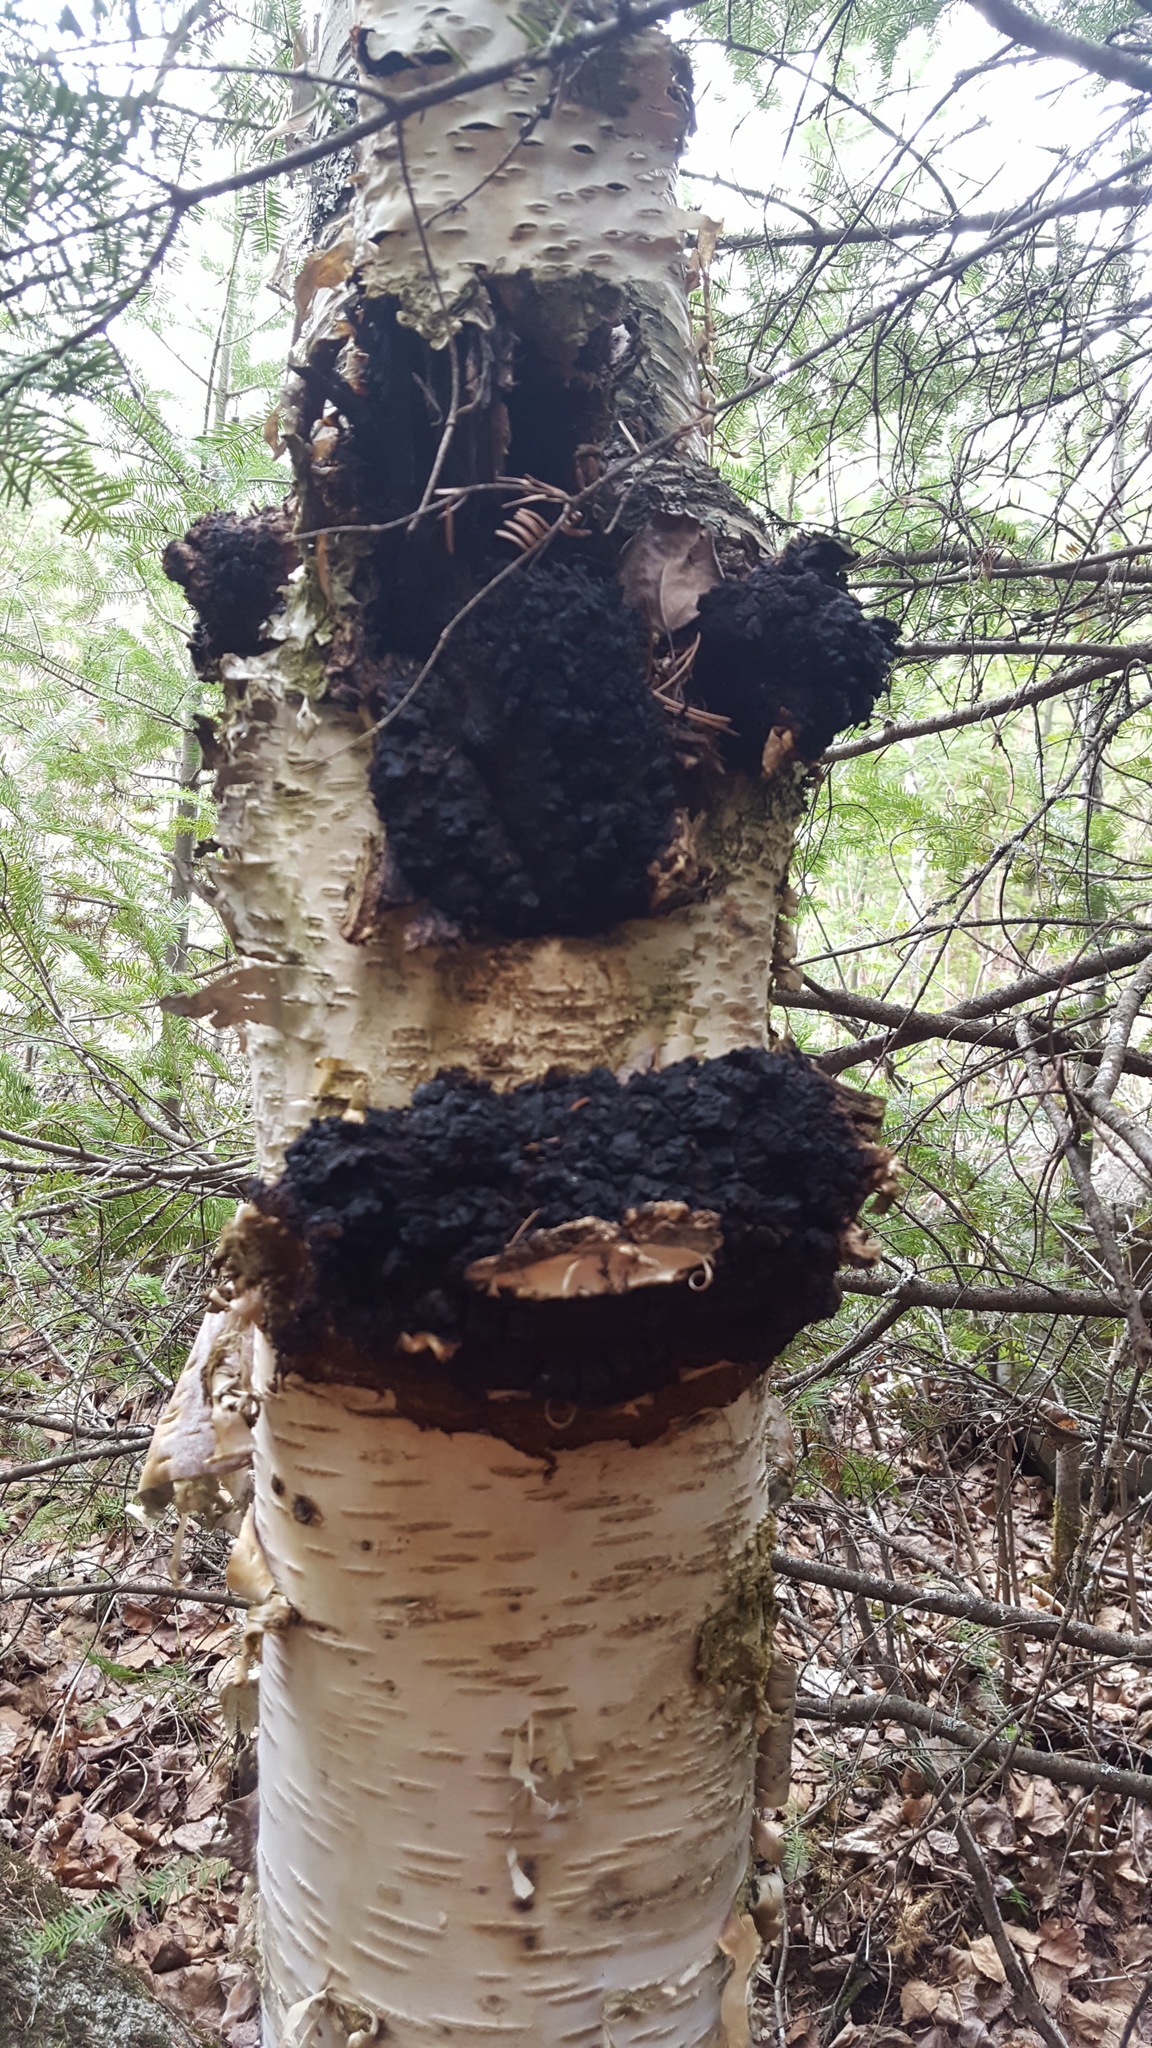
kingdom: Fungi
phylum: Basidiomycota
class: Agaricomycetes
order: Hymenochaetales
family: Hymenochaetaceae
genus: Inonotus
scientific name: Inonotus obliquus
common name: Chaga
